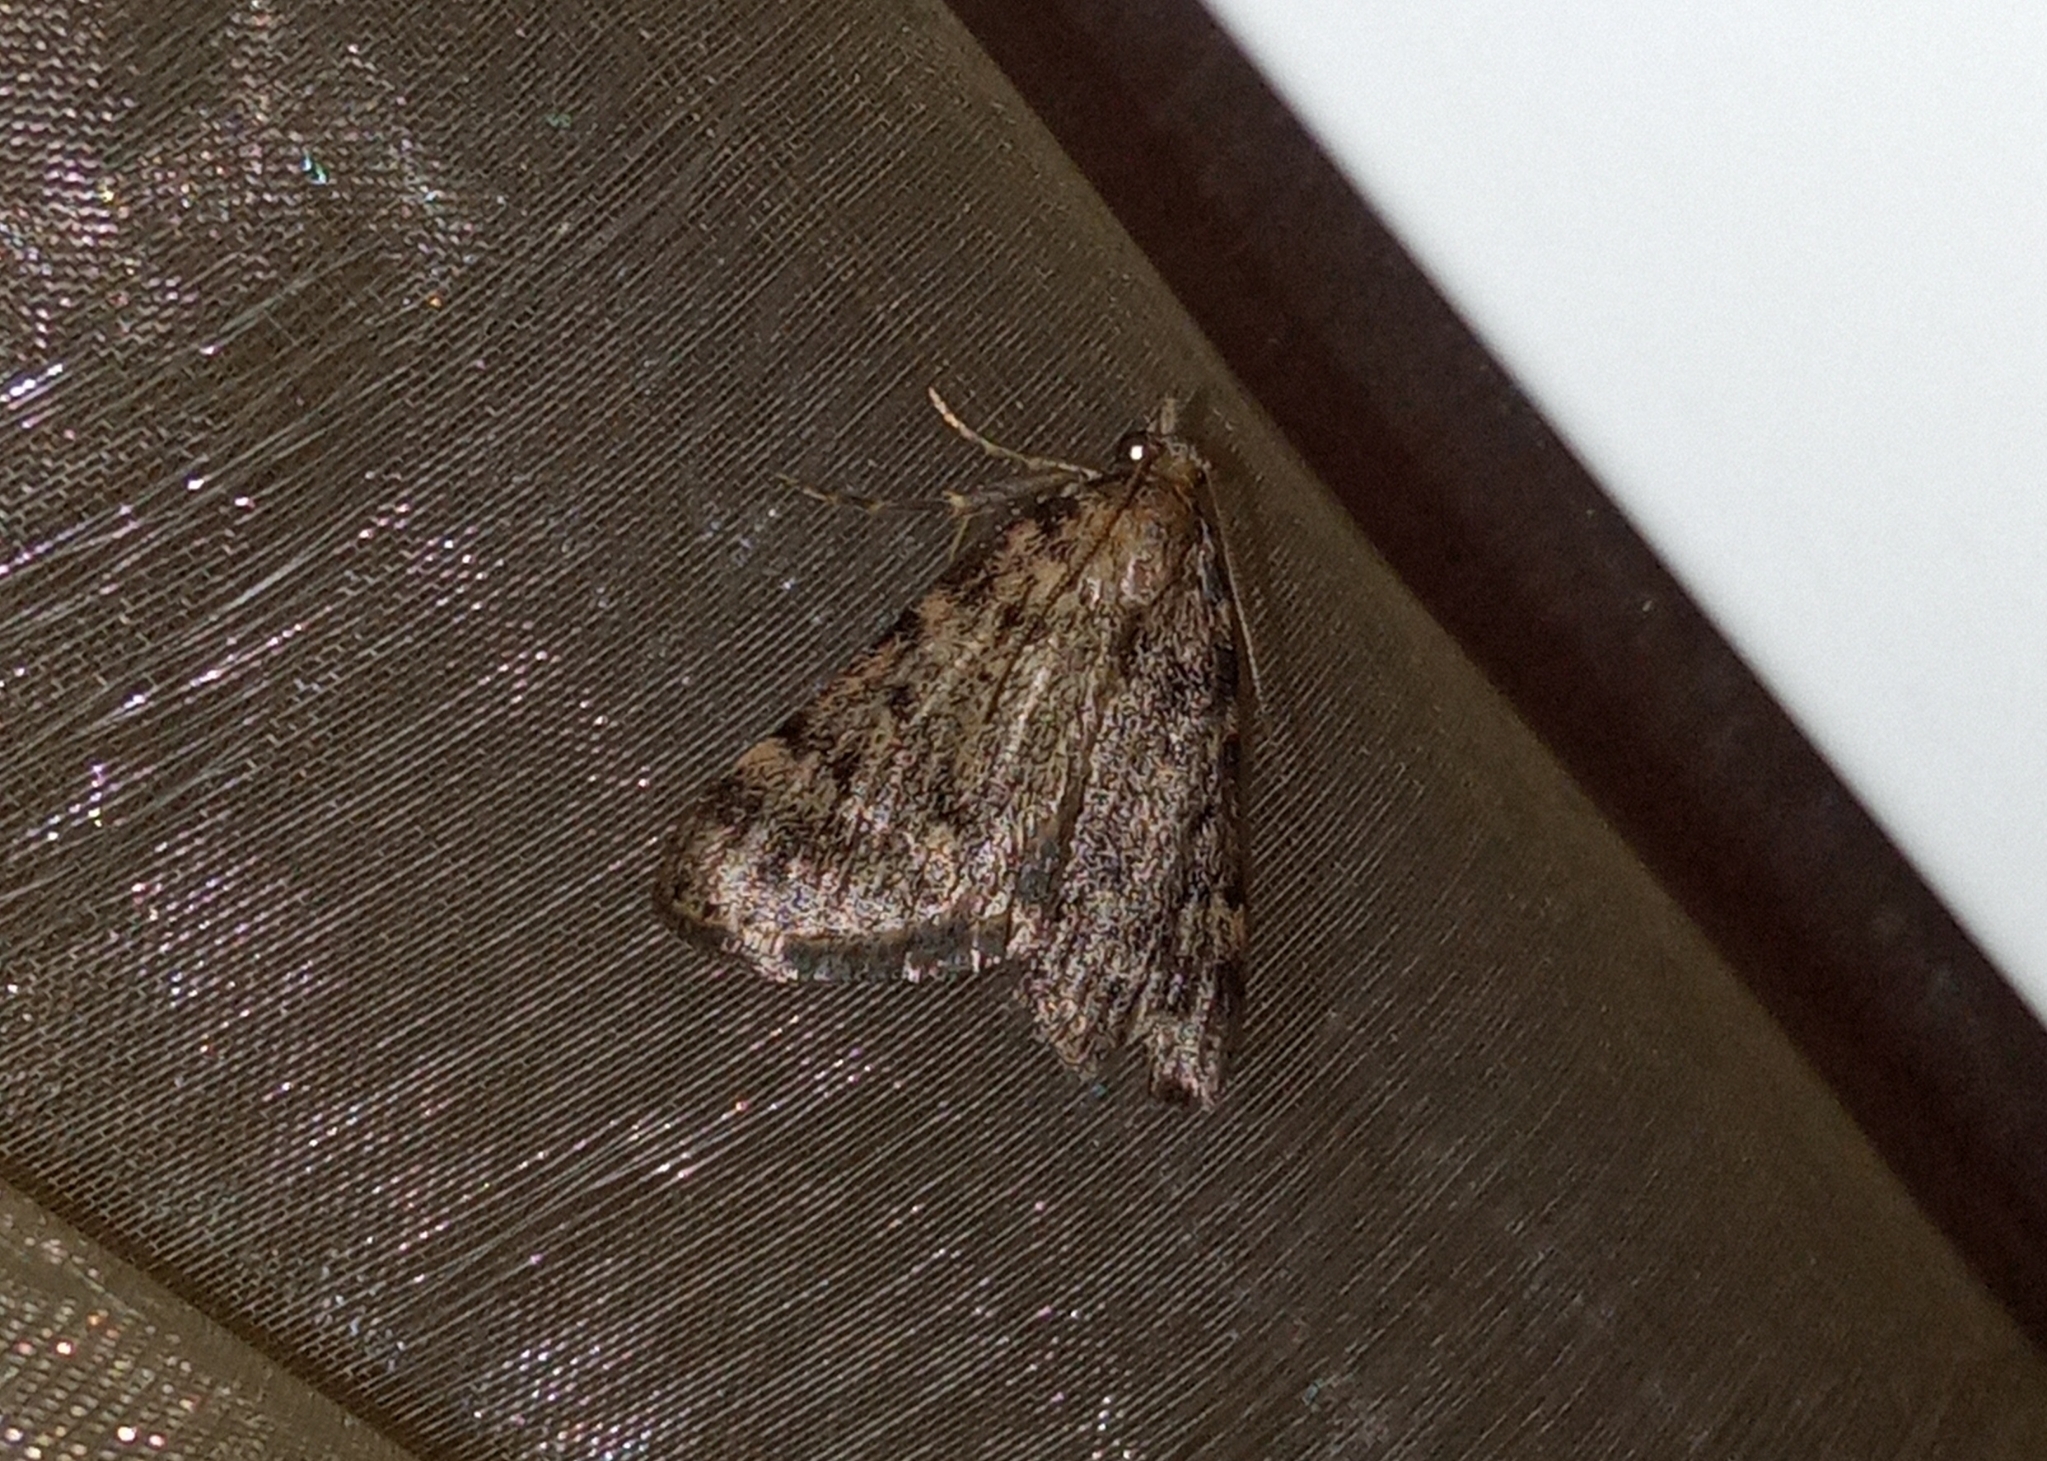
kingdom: Animalia
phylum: Arthropoda
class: Insecta
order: Lepidoptera
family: Pyralidae
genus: Aglossa
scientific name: Aglossa pinguinalis
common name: Large tabby
